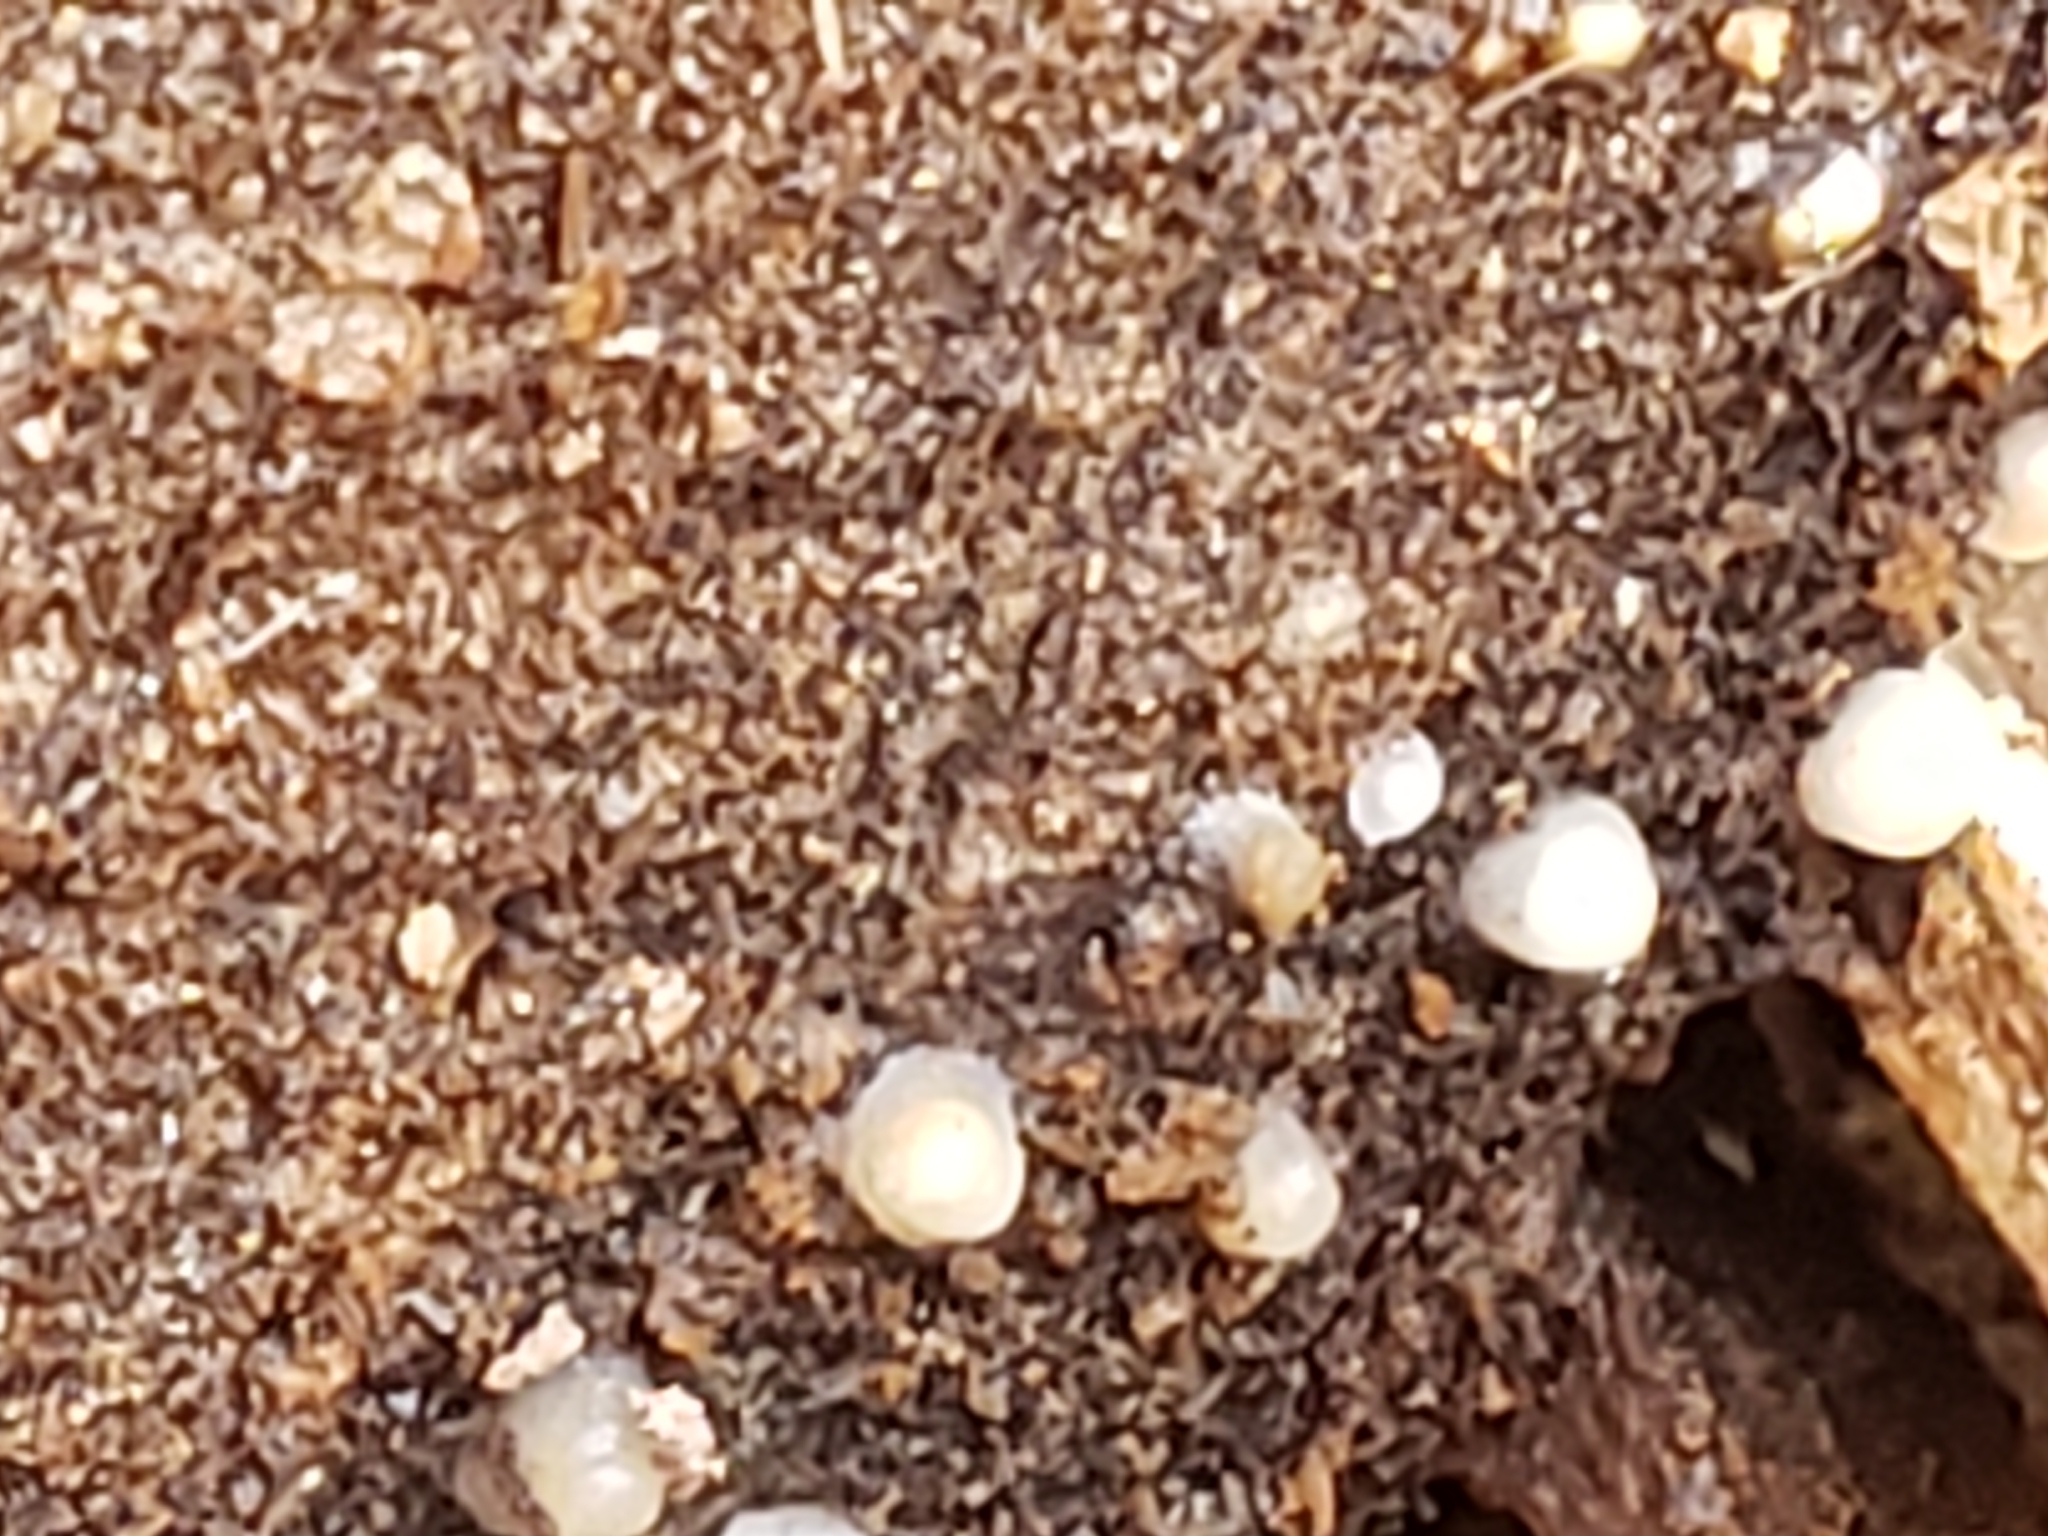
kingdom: Fungi
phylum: Basidiomycota
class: Atractiellomycetes
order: Atractiellales
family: Phleogenaceae
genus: Helicogloea
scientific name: Helicogloea compressa
